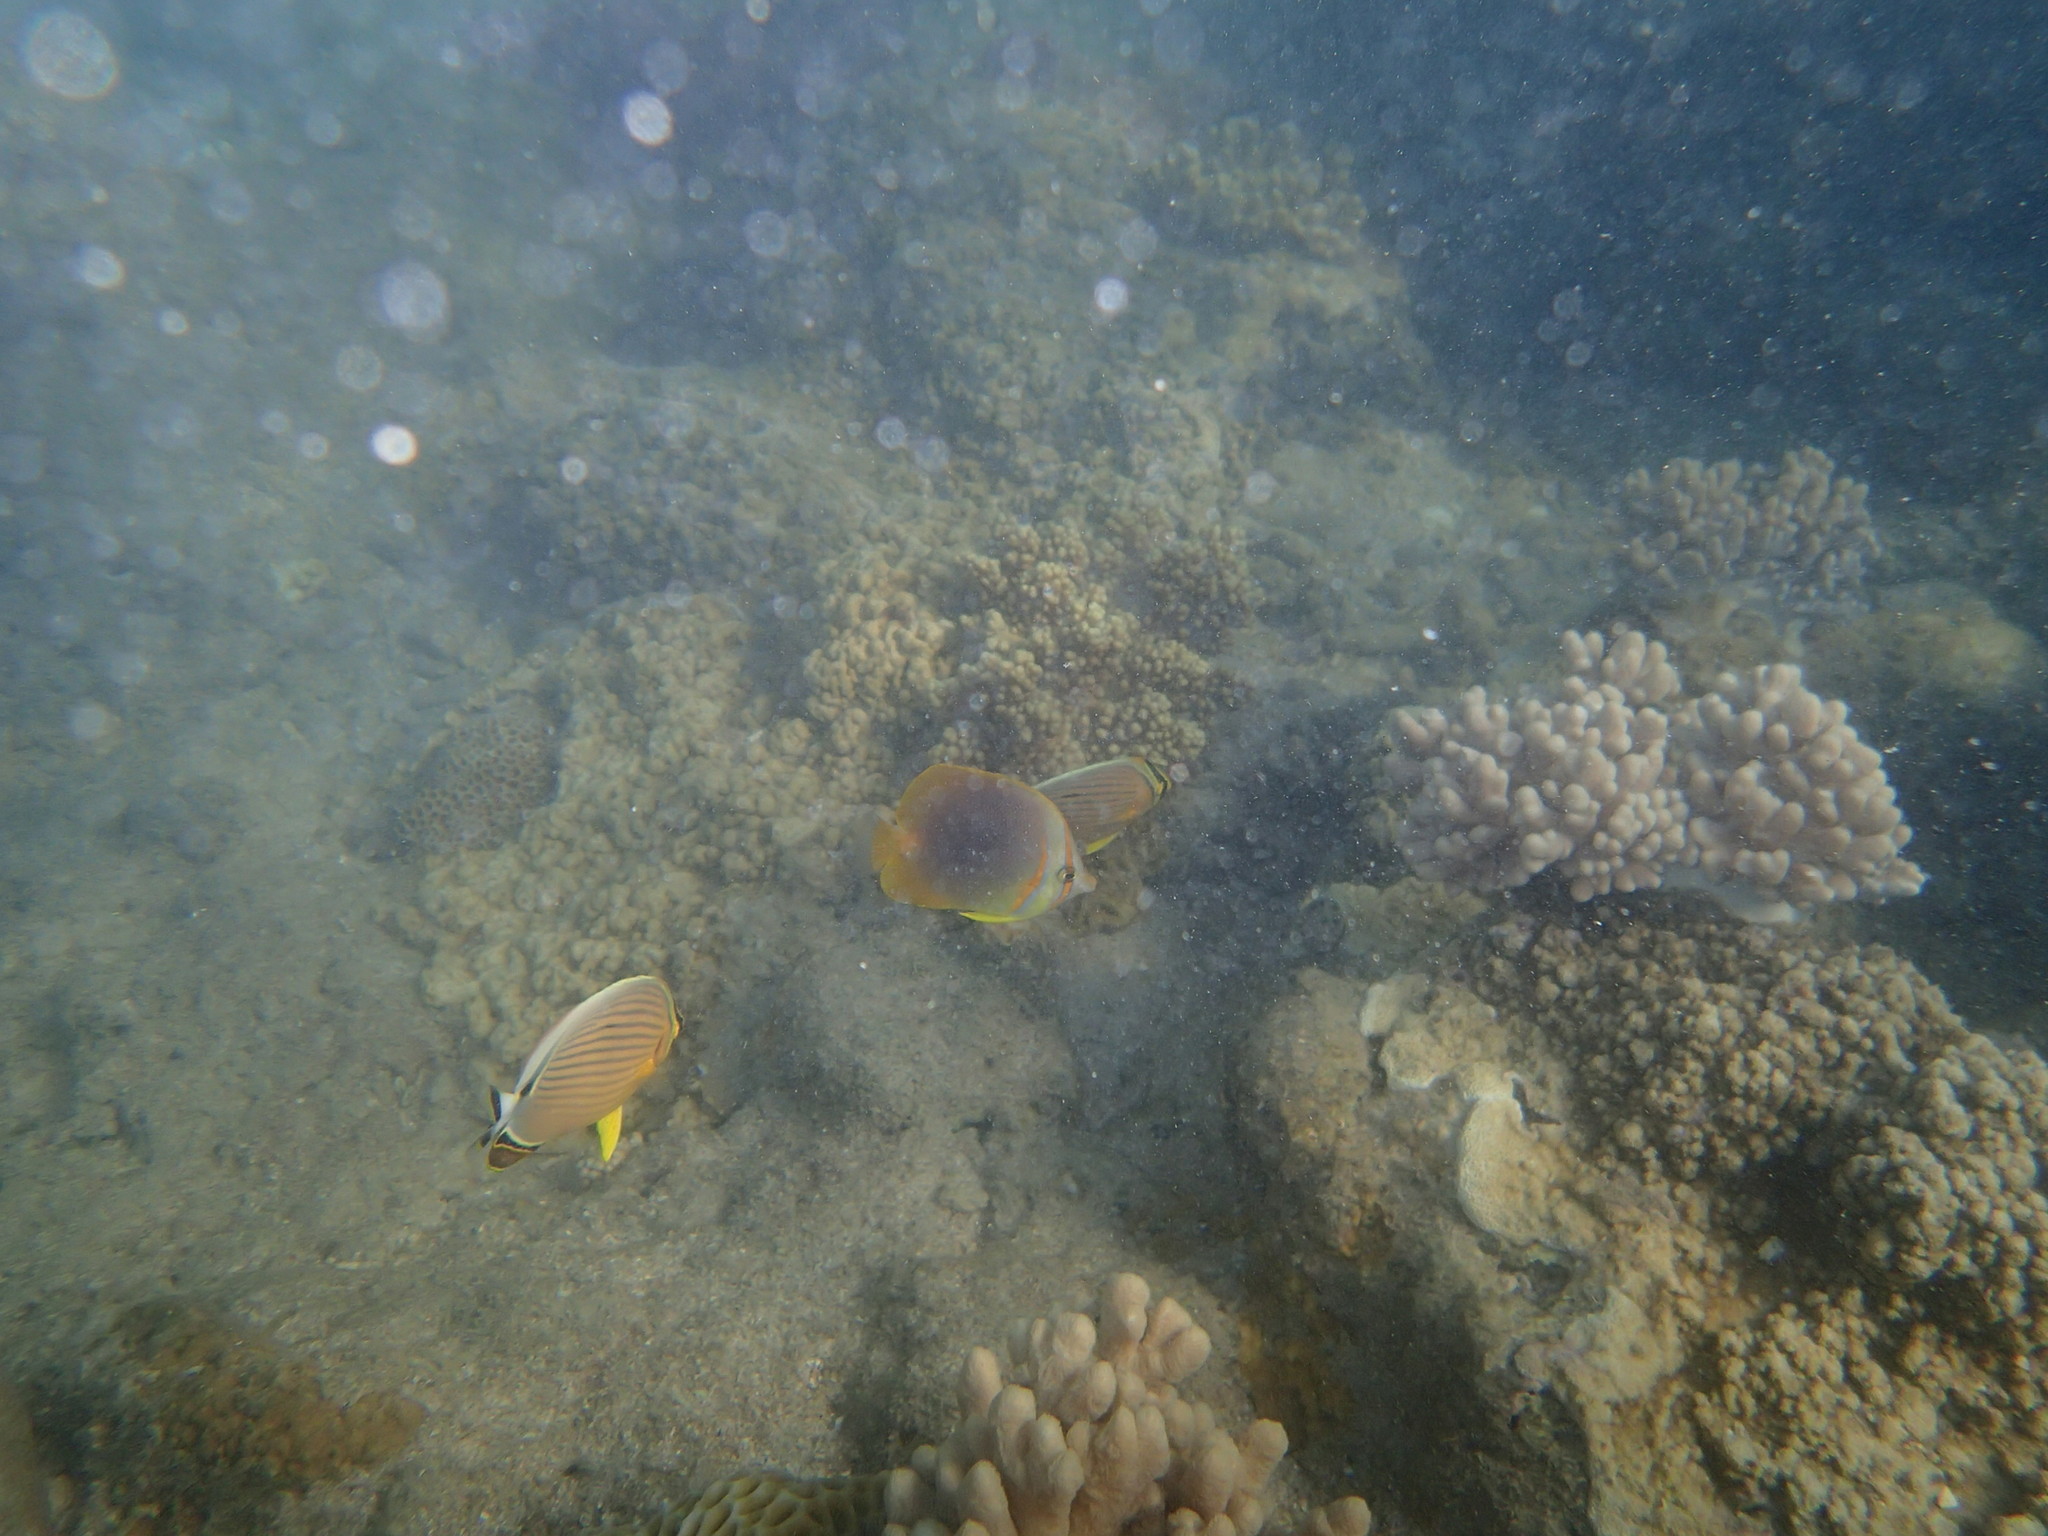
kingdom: Animalia
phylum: Chordata
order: Perciformes
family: Chaetodontidae
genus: Chaetodon
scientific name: Chaetodon aureofasciatus
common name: Golden butterflyfish
